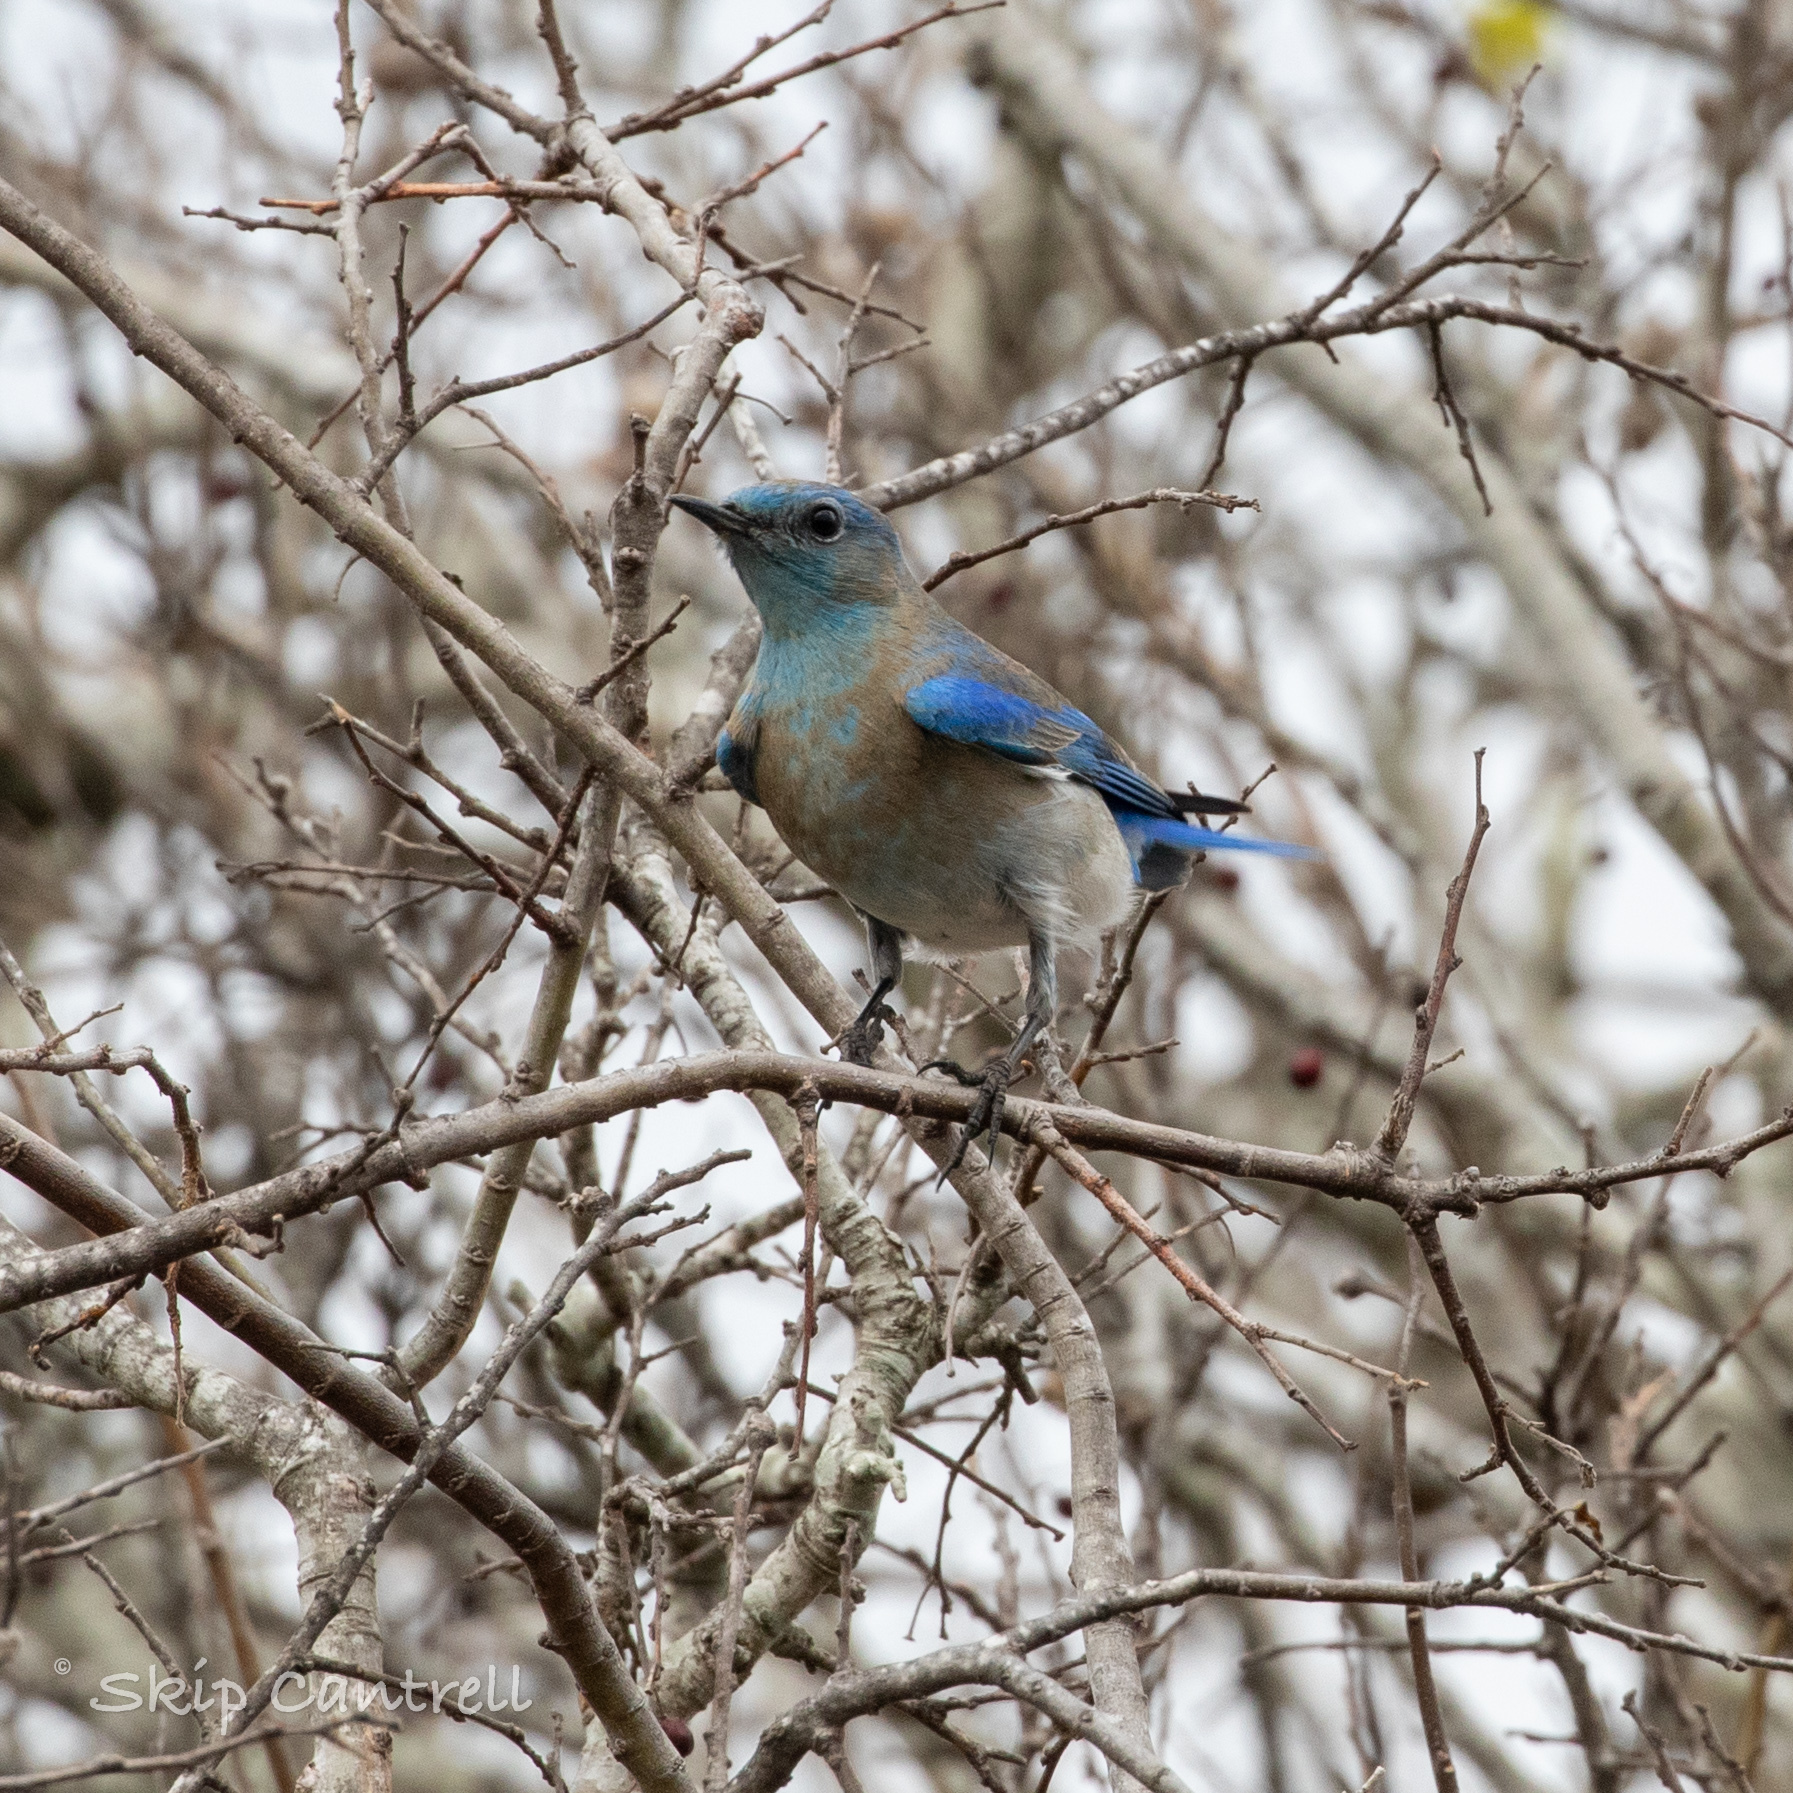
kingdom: Animalia
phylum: Chordata
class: Aves
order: Passeriformes
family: Turdidae
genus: Sialia
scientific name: Sialia currucoides
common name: Mountain bluebird
